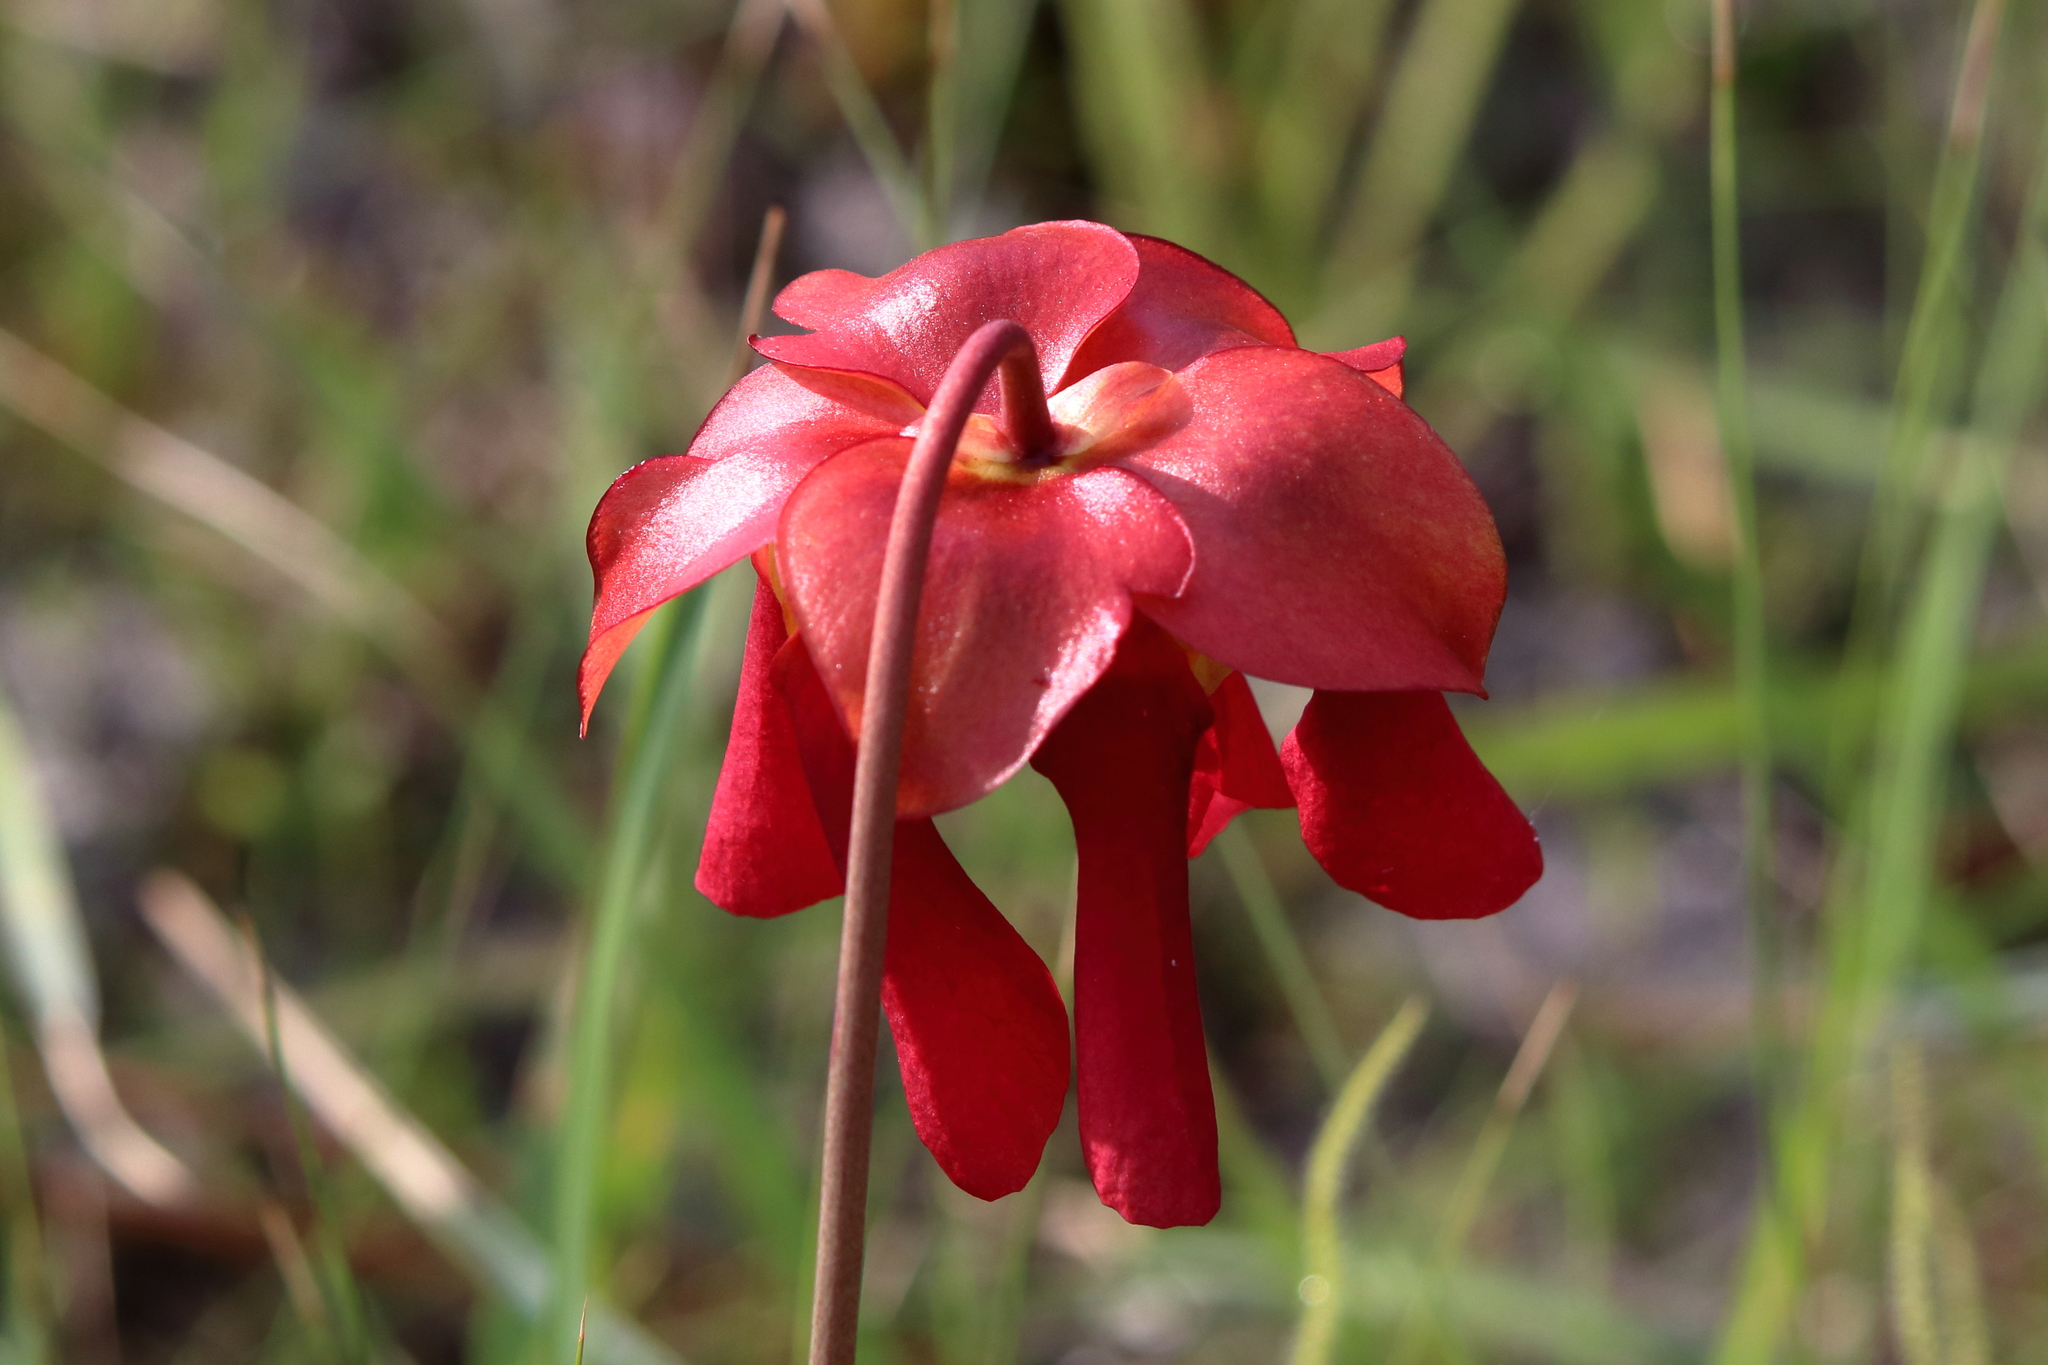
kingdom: Plantae
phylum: Tracheophyta
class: Magnoliopsida
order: Ericales
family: Sarraceniaceae
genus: Sarracenia
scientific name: Sarracenia psittacina
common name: Parrot pitcherplant
